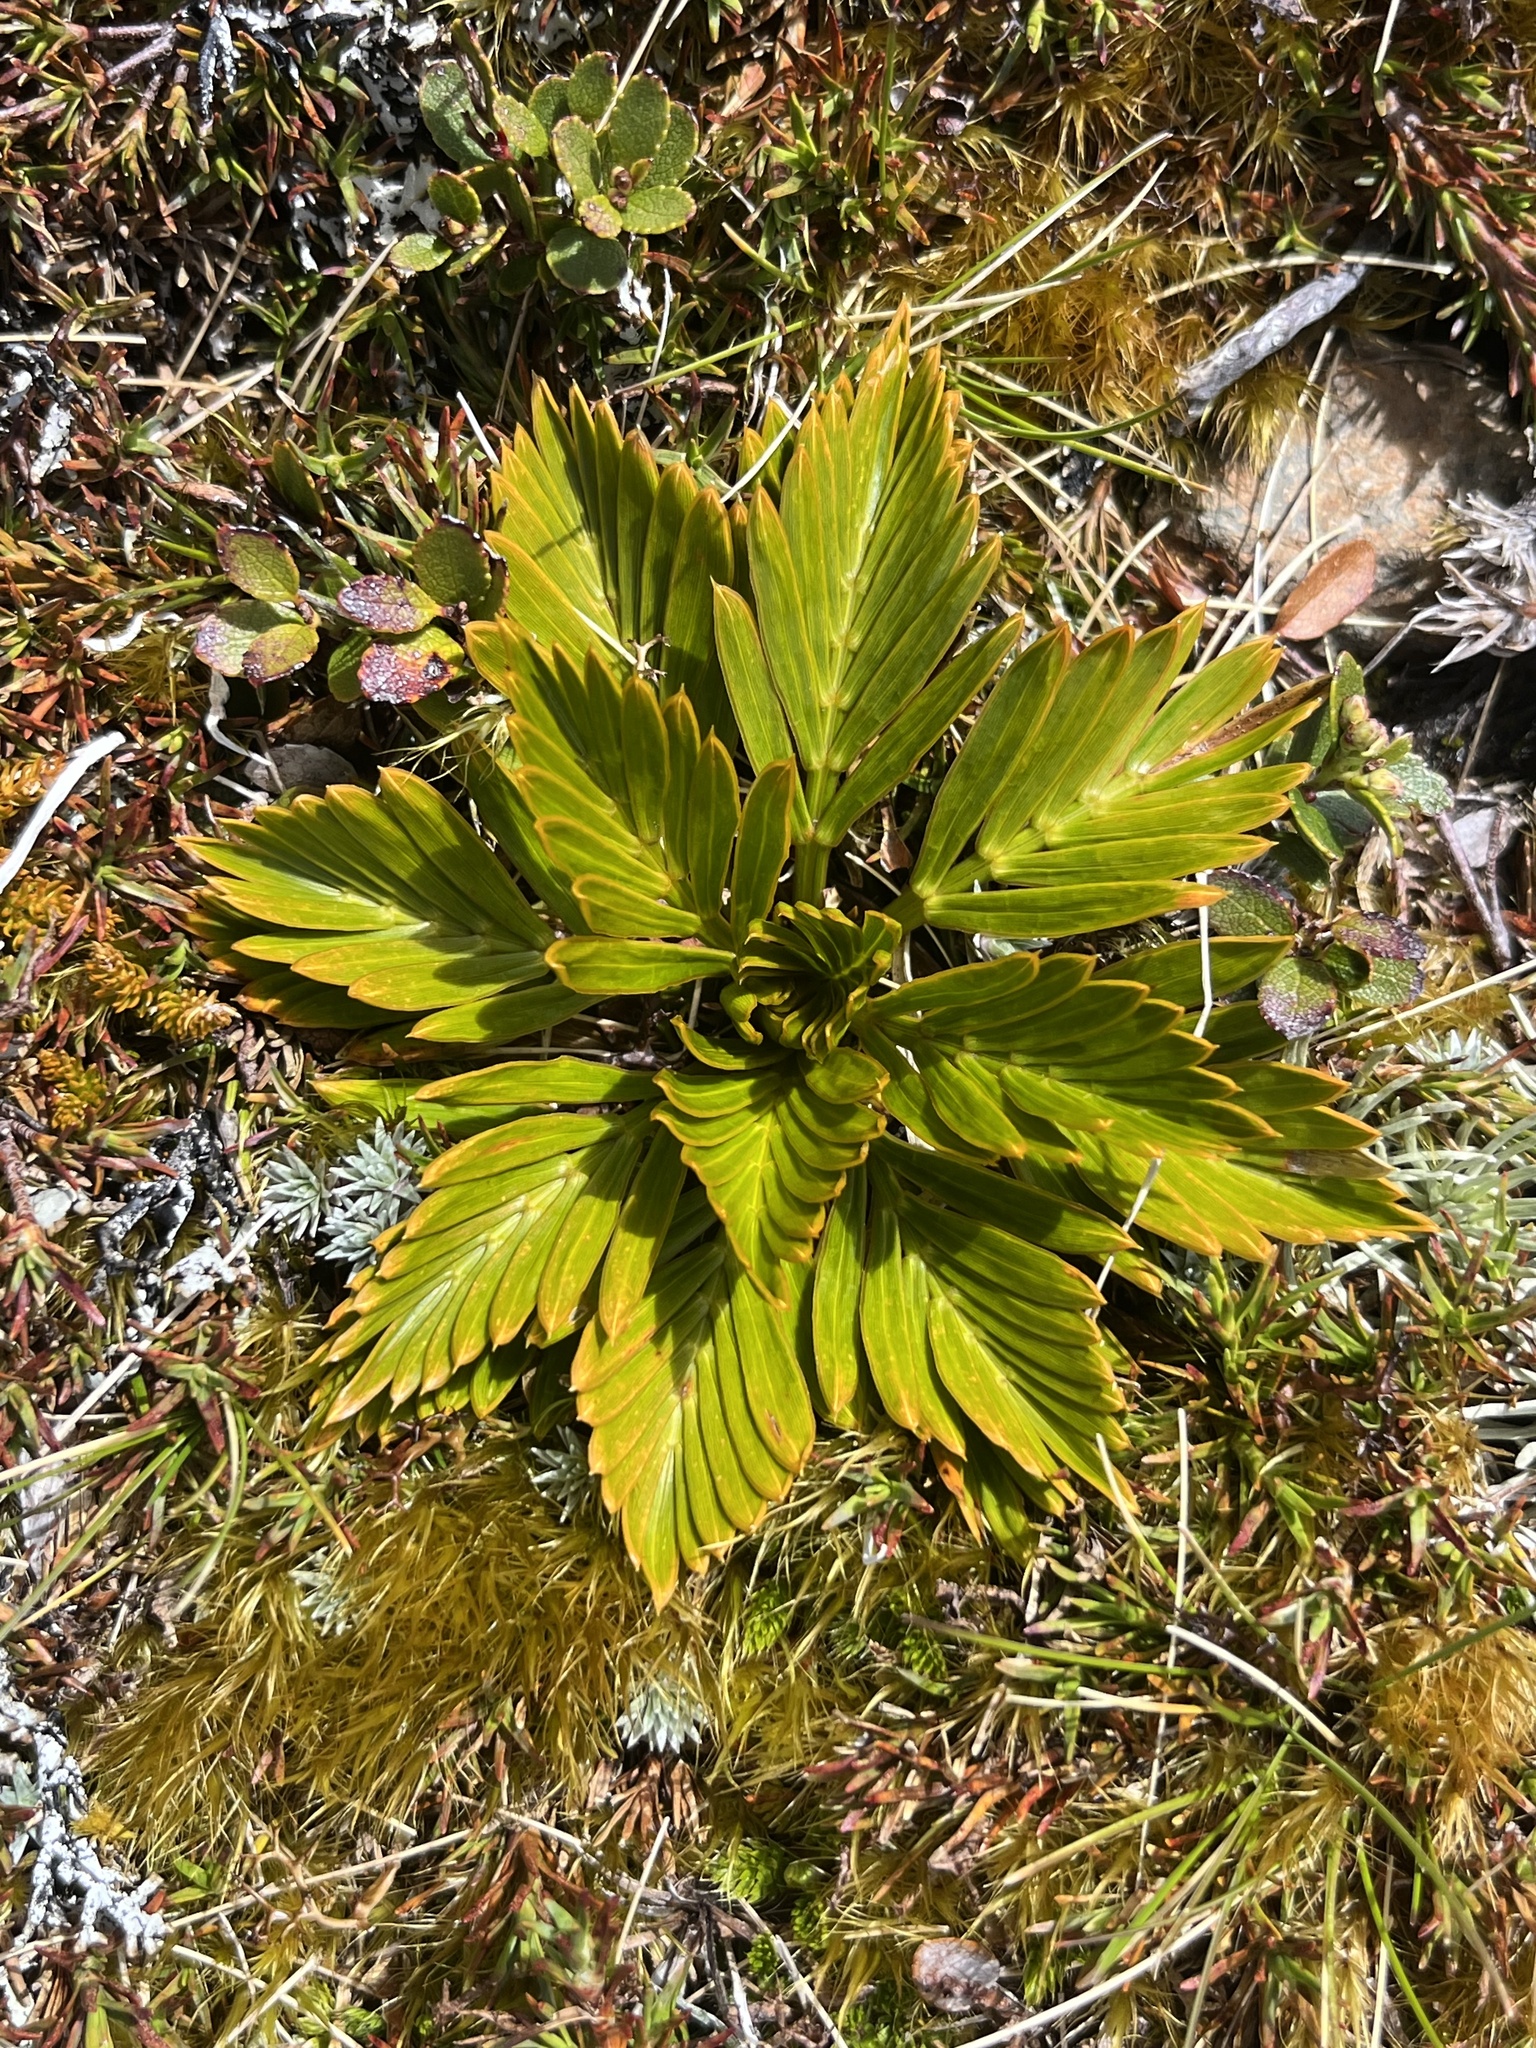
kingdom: Plantae
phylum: Tracheophyta
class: Magnoliopsida
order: Apiales
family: Apiaceae
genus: Aciphylla
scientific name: Aciphylla similis
